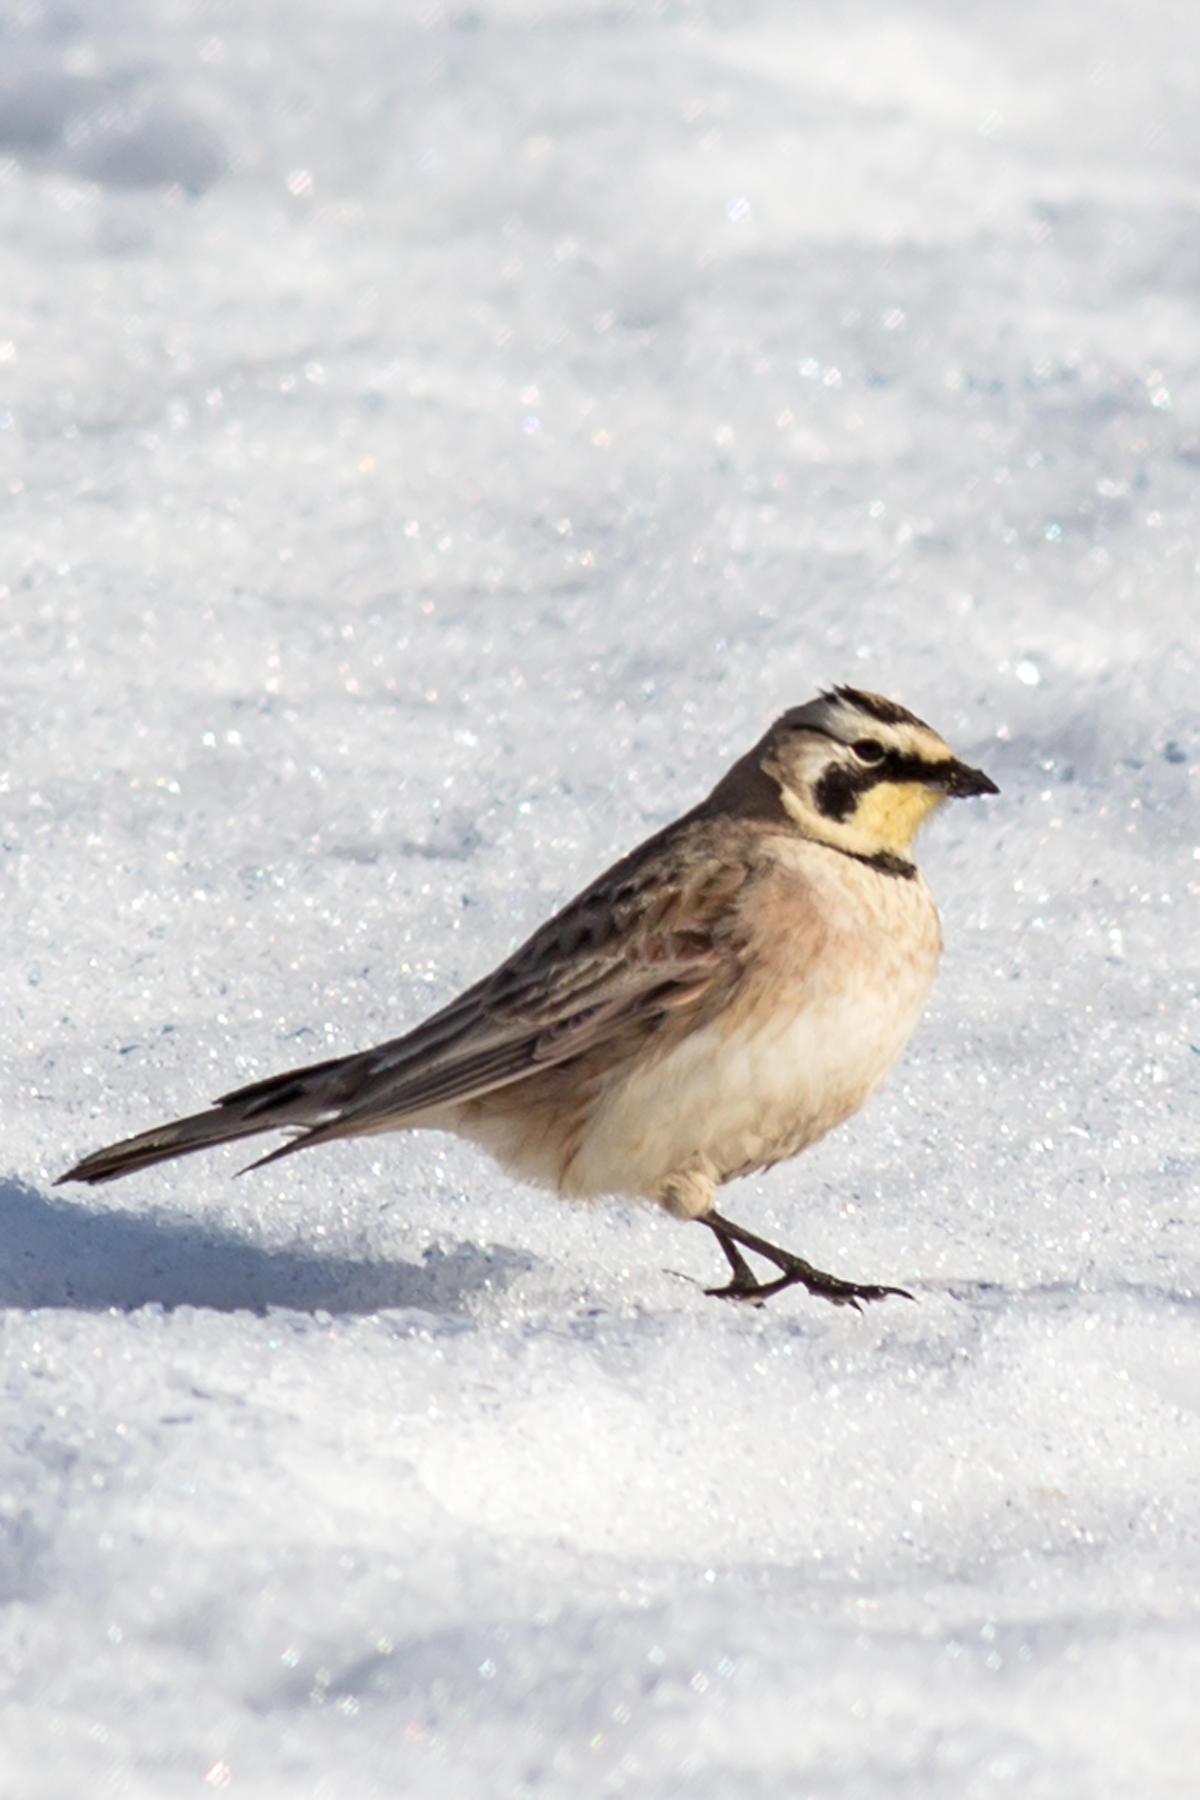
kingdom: Animalia
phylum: Chordata
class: Aves
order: Passeriformes
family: Alaudidae
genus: Eremophila
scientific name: Eremophila alpestris
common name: Horned lark
